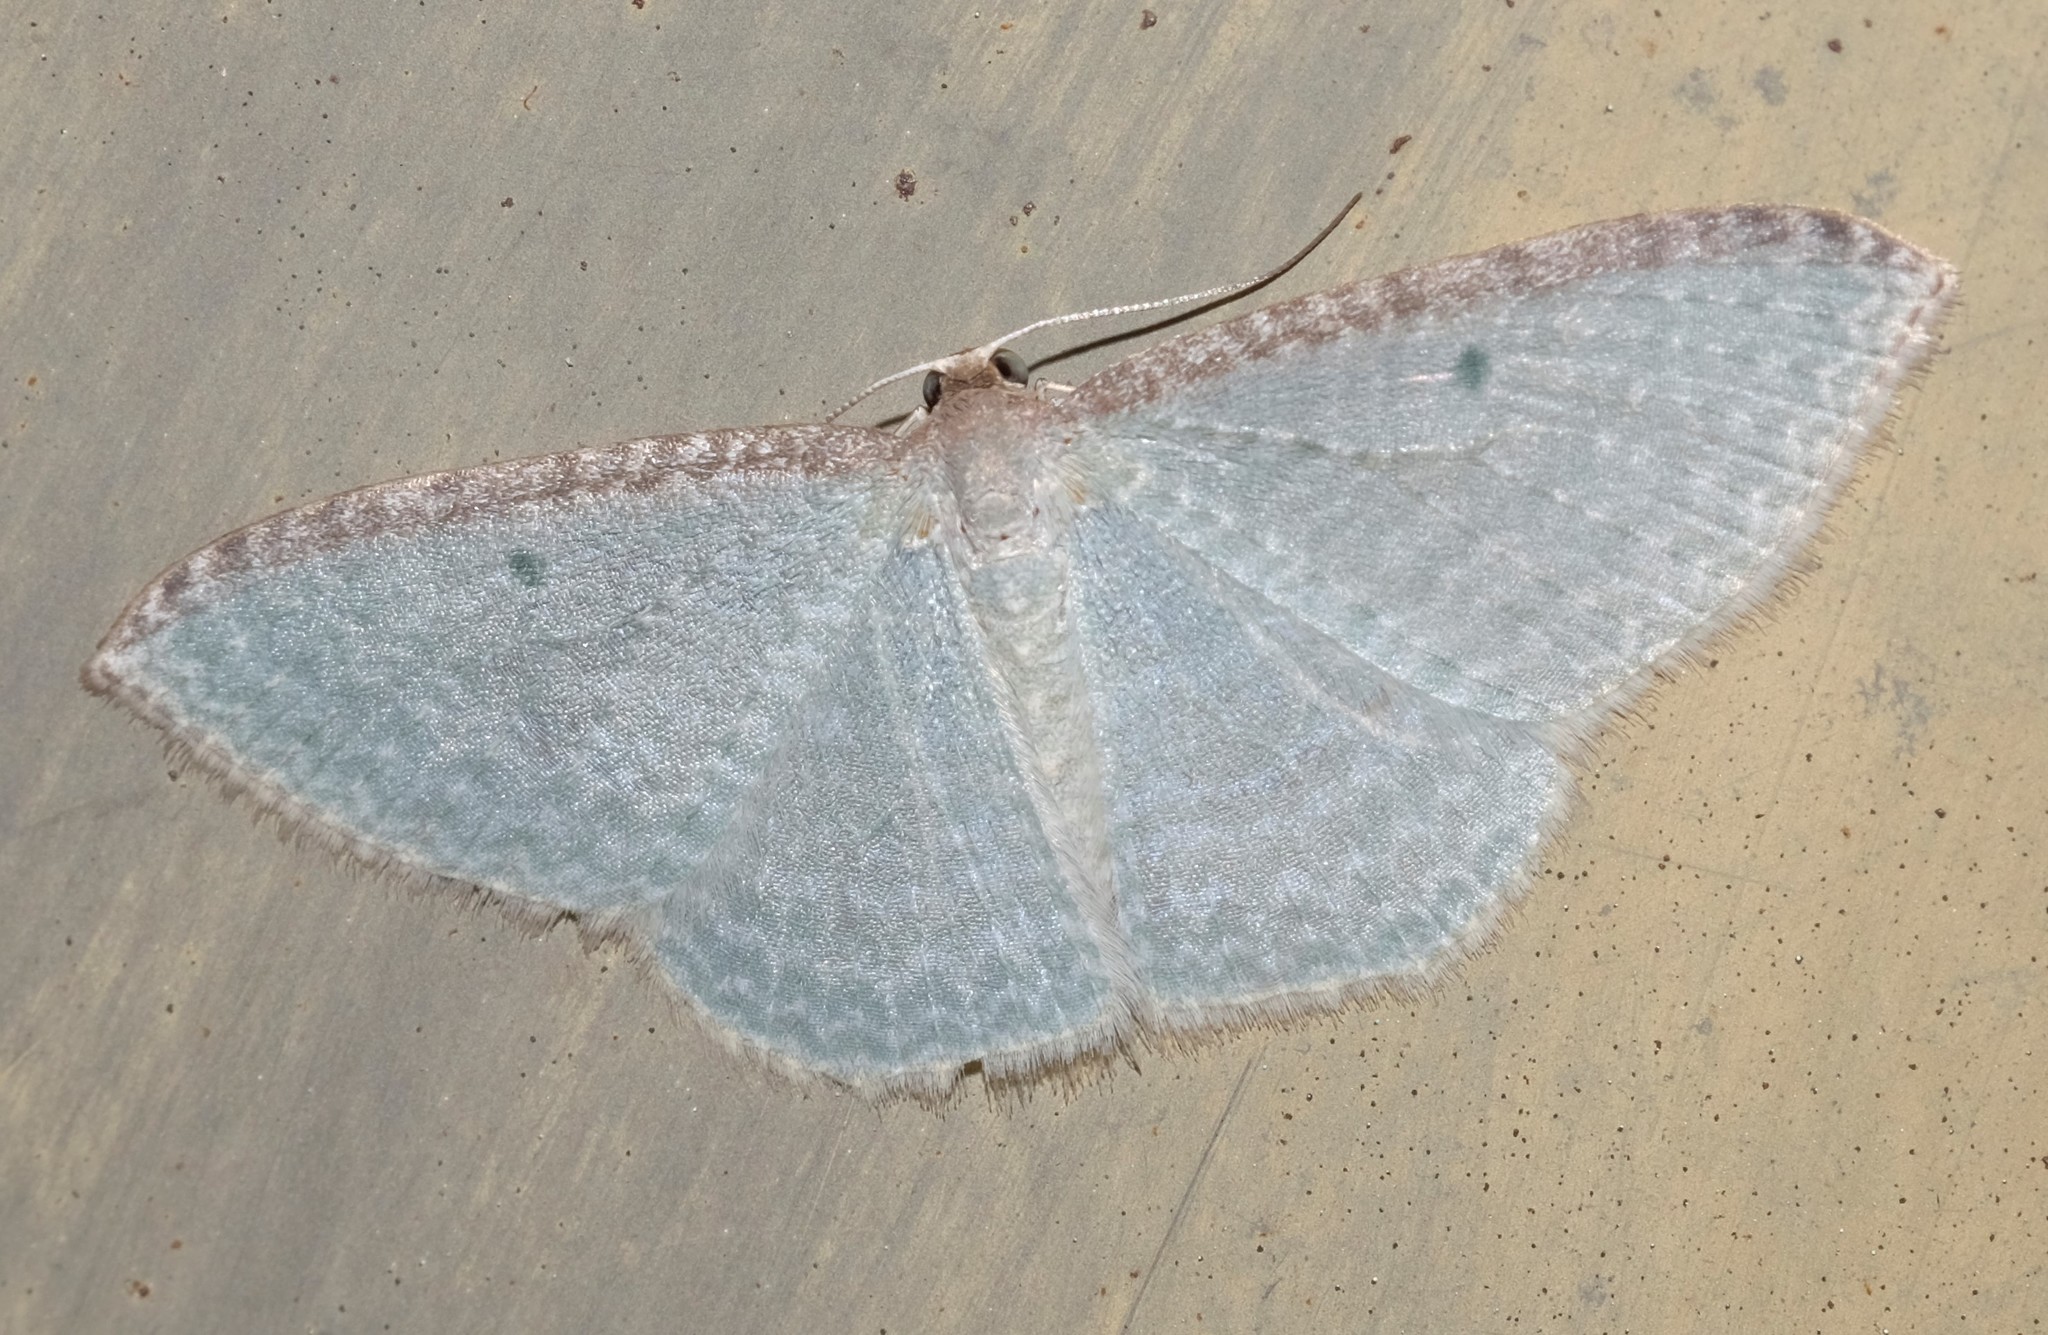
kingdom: Animalia
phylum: Arthropoda
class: Insecta
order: Lepidoptera
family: Geometridae
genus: Poecilasthena
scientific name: Poecilasthena pulchraria
